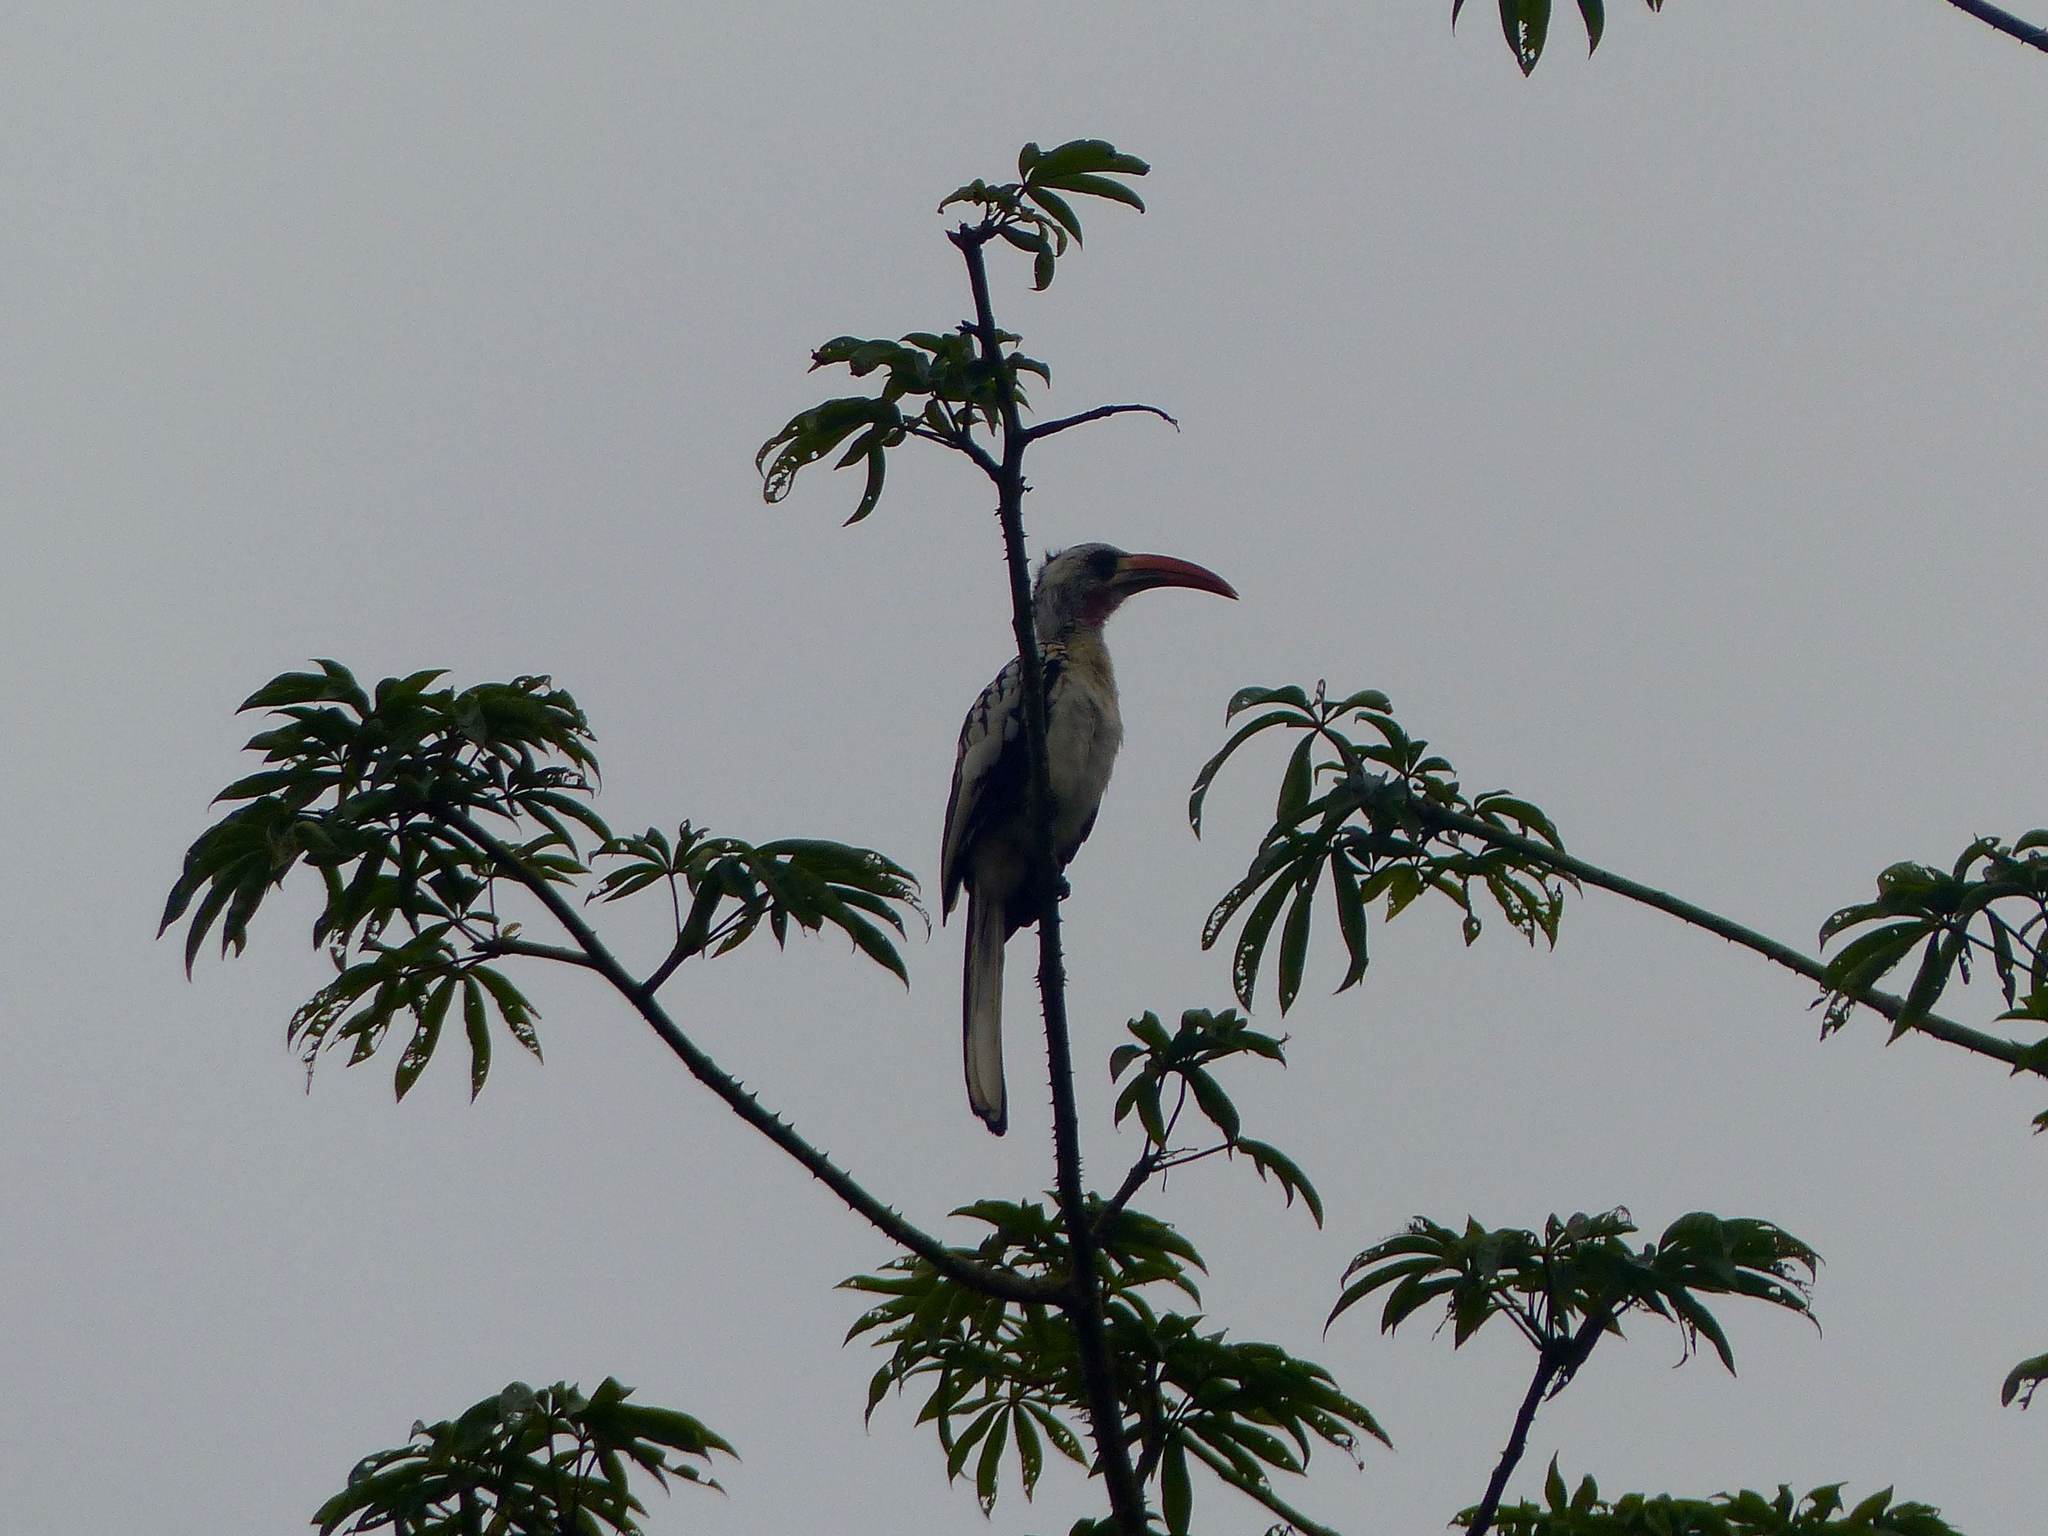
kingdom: Animalia
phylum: Chordata
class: Aves
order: Bucerotiformes
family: Bucerotidae
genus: Tockus
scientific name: Tockus kempi
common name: Western red-billed hornbill
